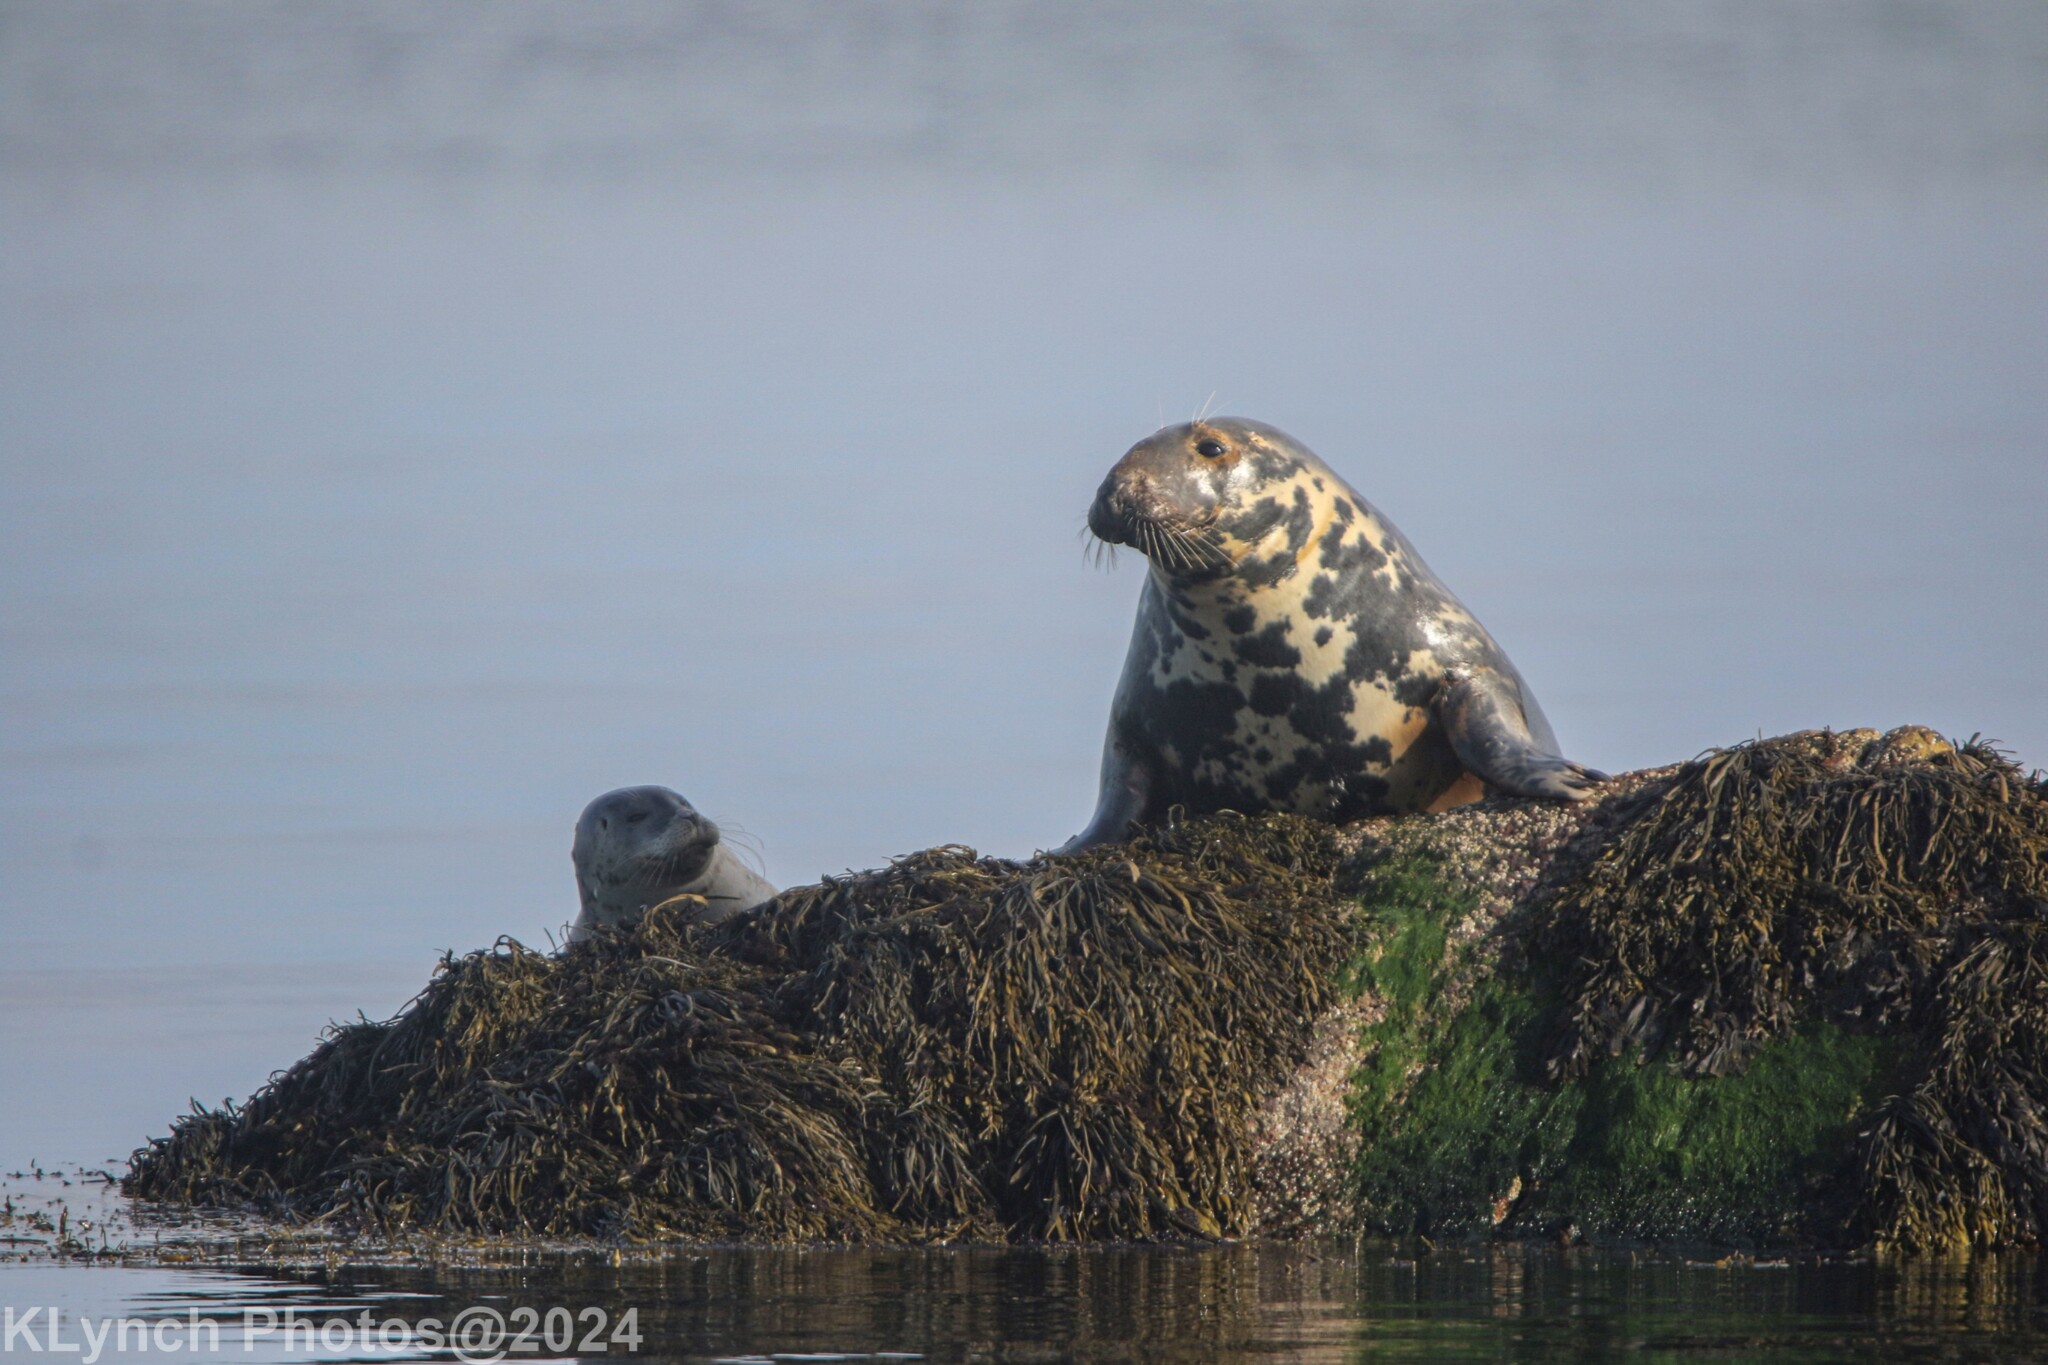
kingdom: Animalia
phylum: Chordata
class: Mammalia
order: Carnivora
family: Phocidae
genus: Halichoerus
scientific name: Halichoerus grypus
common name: Grey seal
